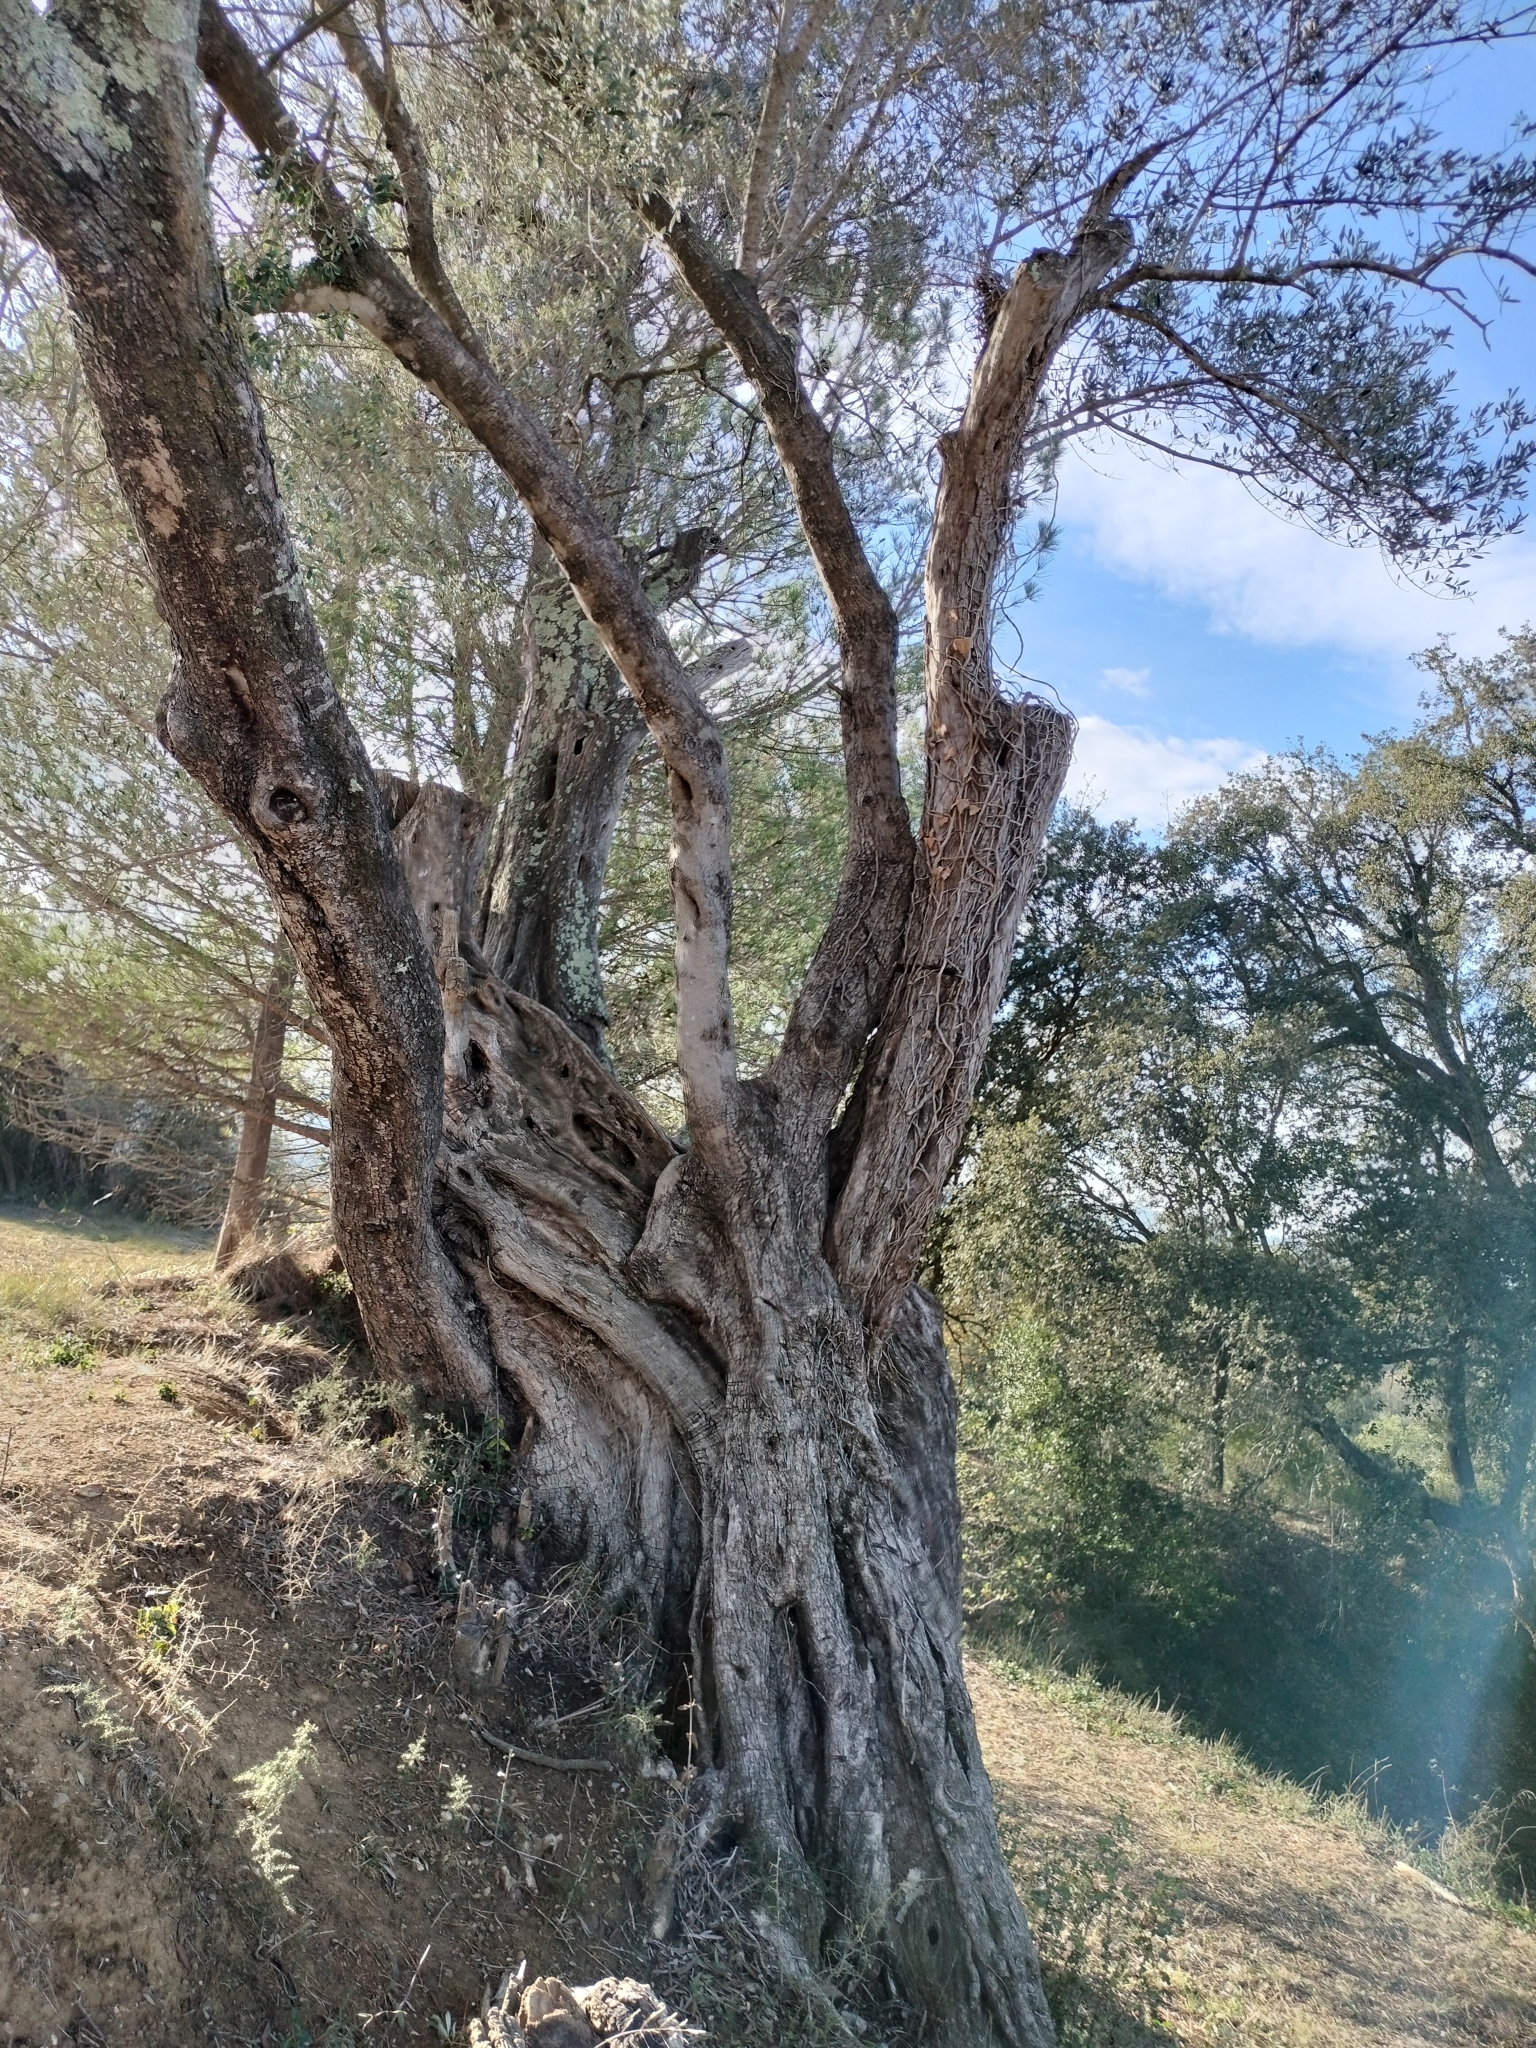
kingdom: Plantae
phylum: Tracheophyta
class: Magnoliopsida
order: Lamiales
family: Oleaceae
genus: Olea
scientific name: Olea europaea
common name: Olive
